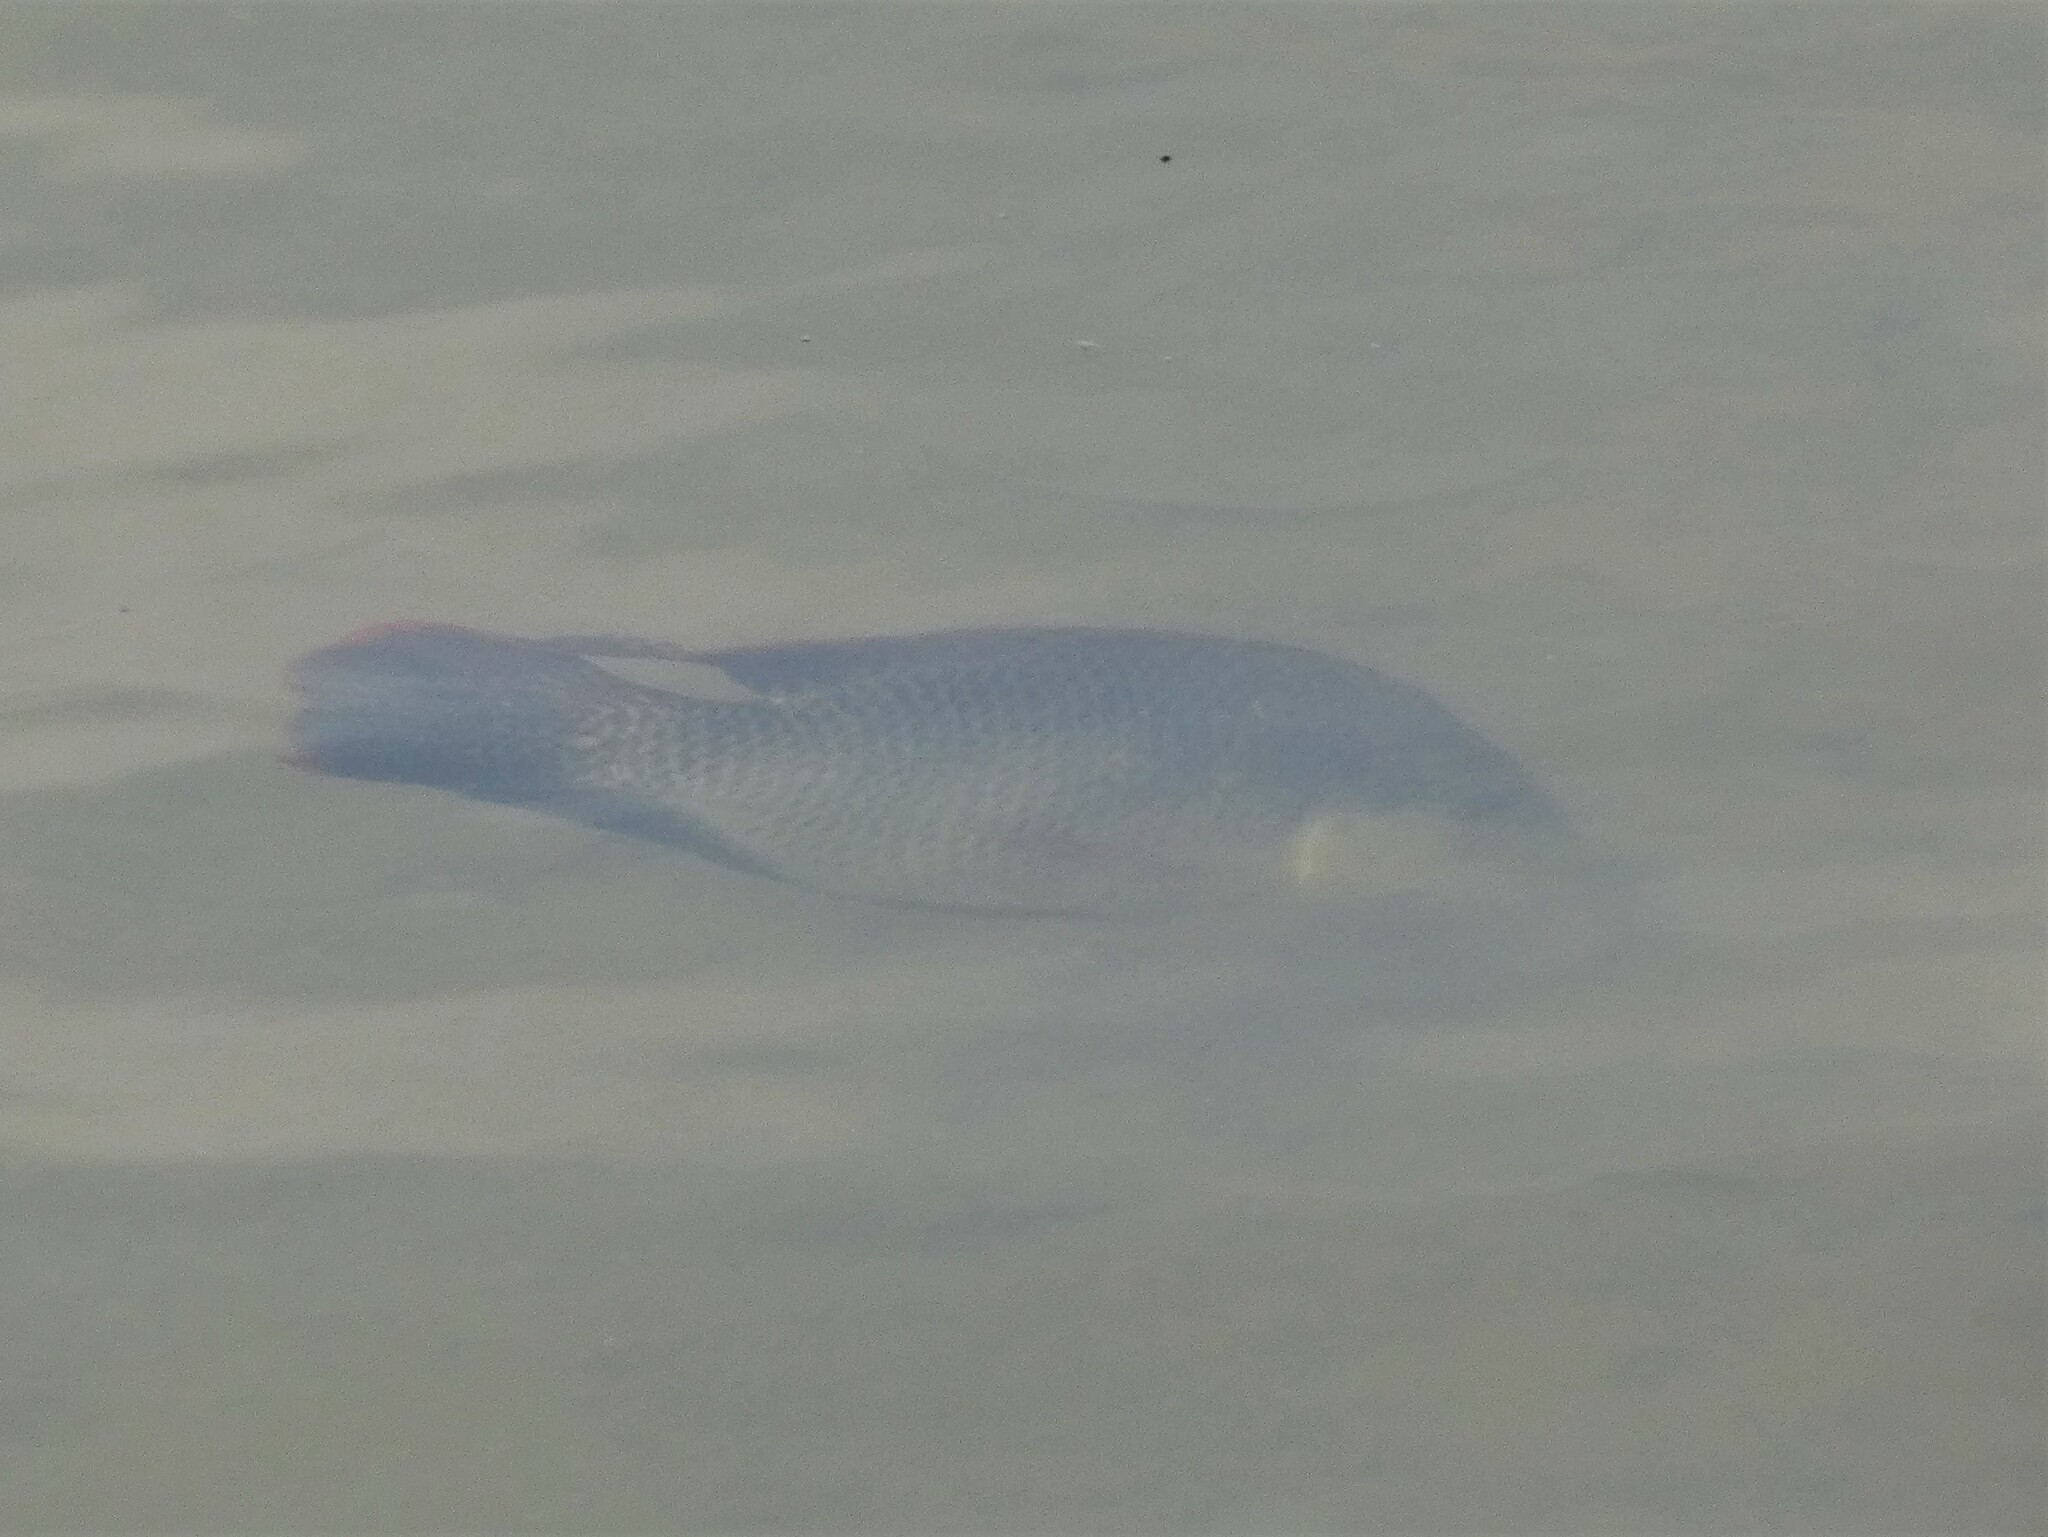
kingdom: Animalia
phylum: Chordata
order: Perciformes
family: Cichlidae
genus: Oreochromis
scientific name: Oreochromis mossambicus
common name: Mozambique tilapia
